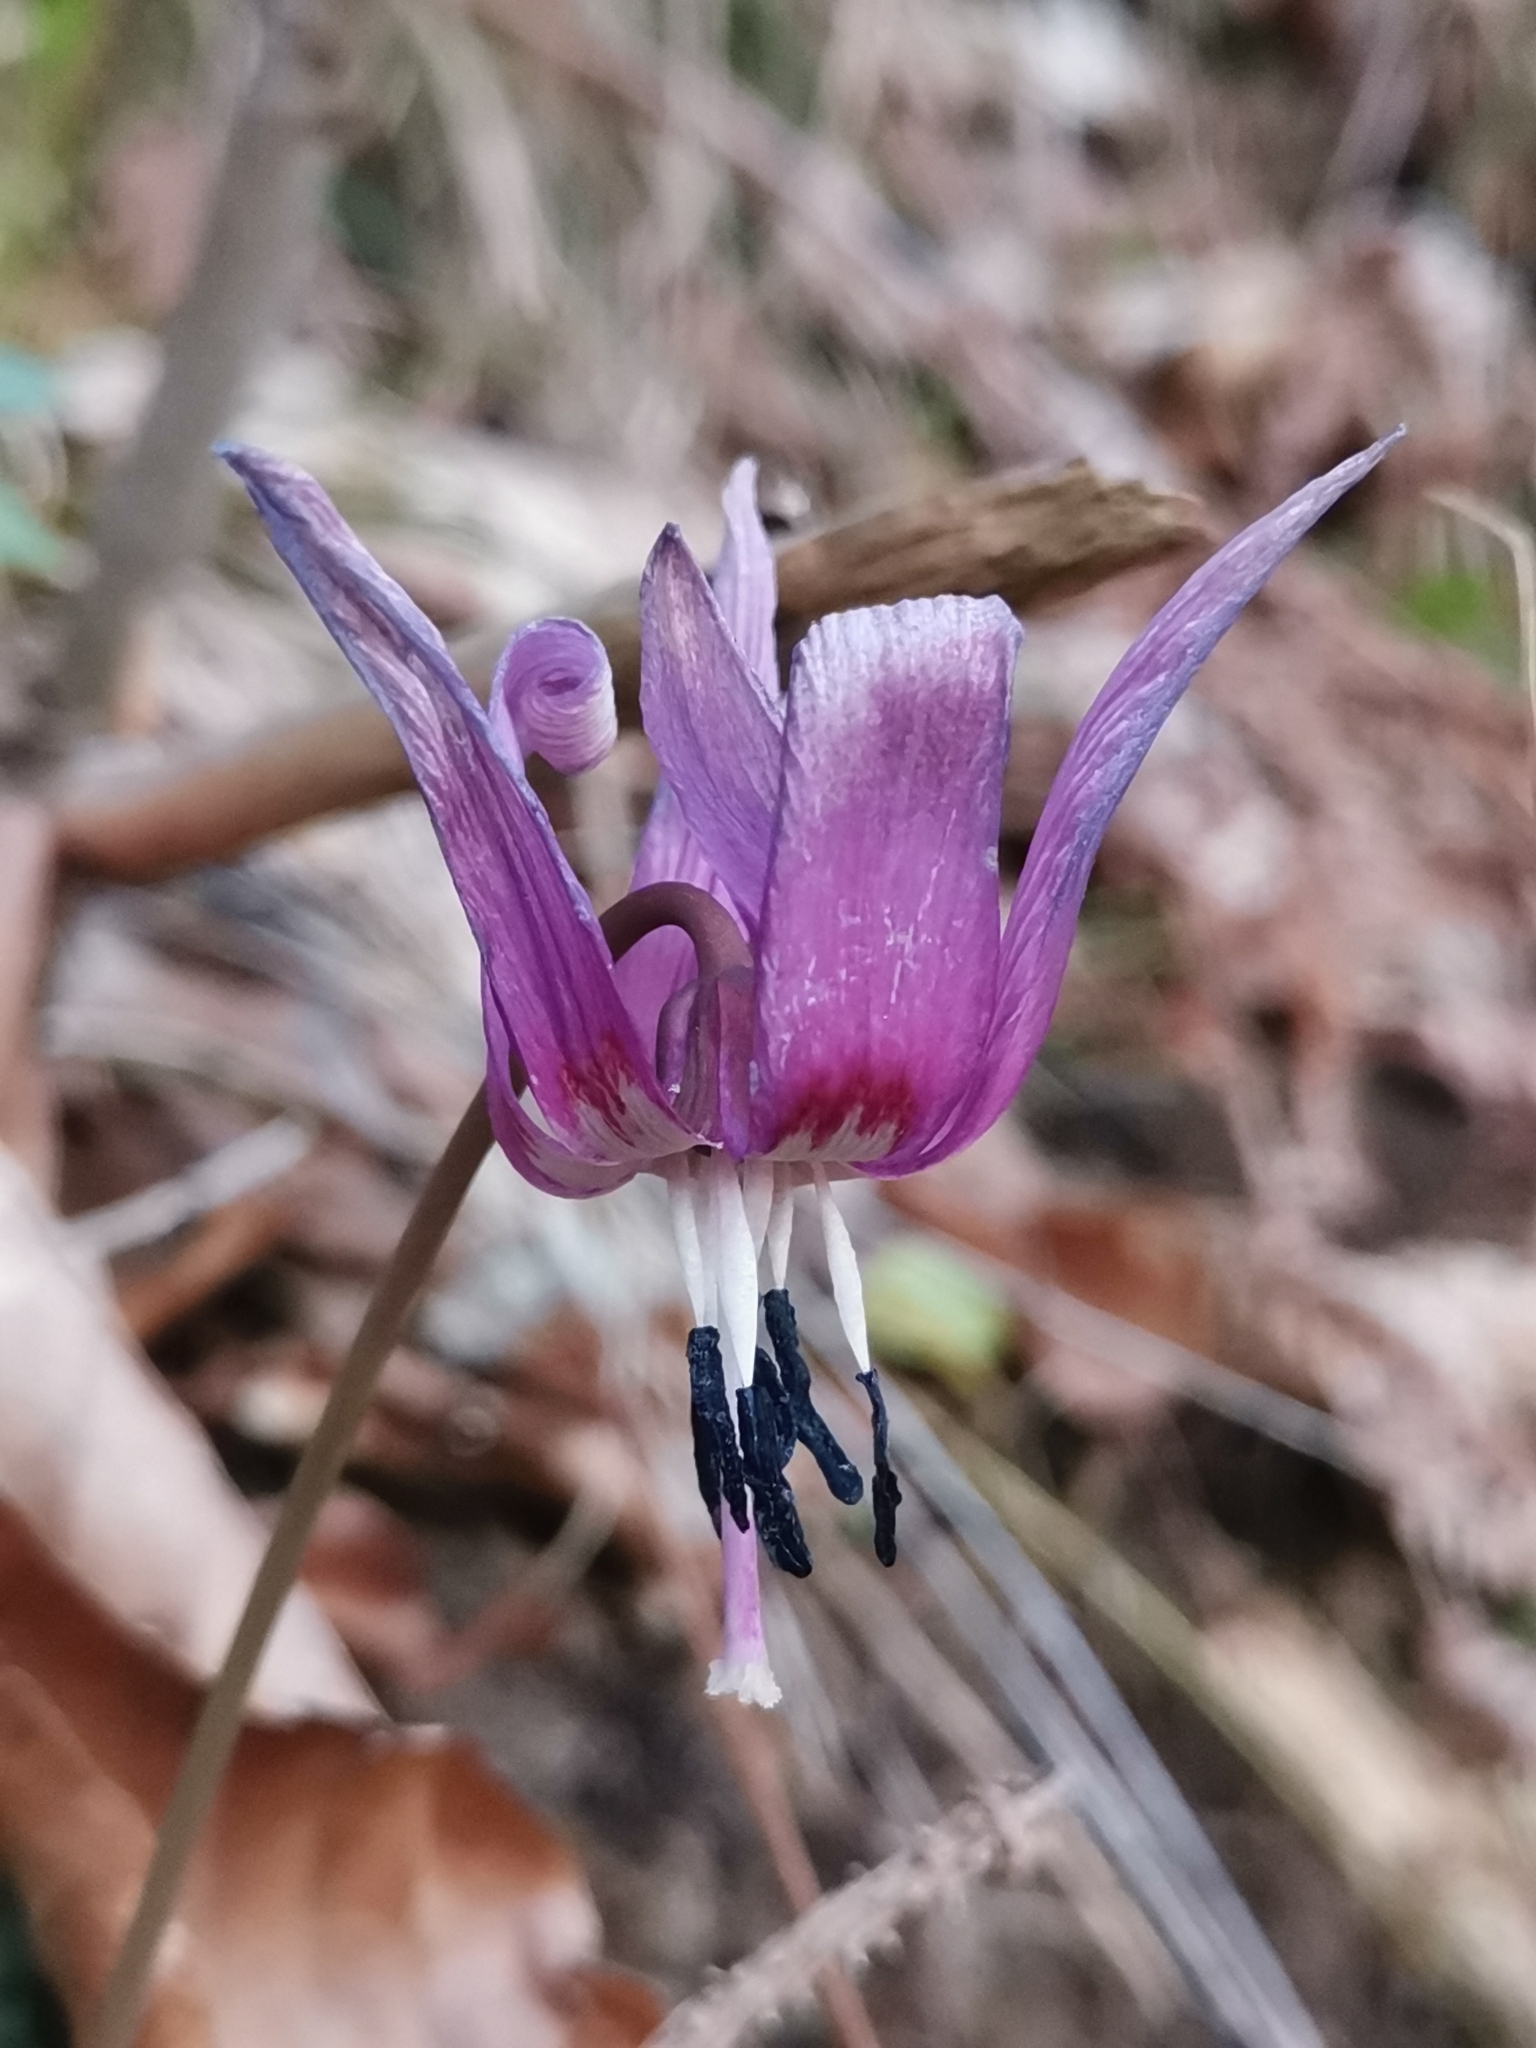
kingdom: Plantae
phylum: Tracheophyta
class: Liliopsida
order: Liliales
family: Liliaceae
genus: Erythronium
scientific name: Erythronium dens-canis
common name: Dog's-tooth-violet
